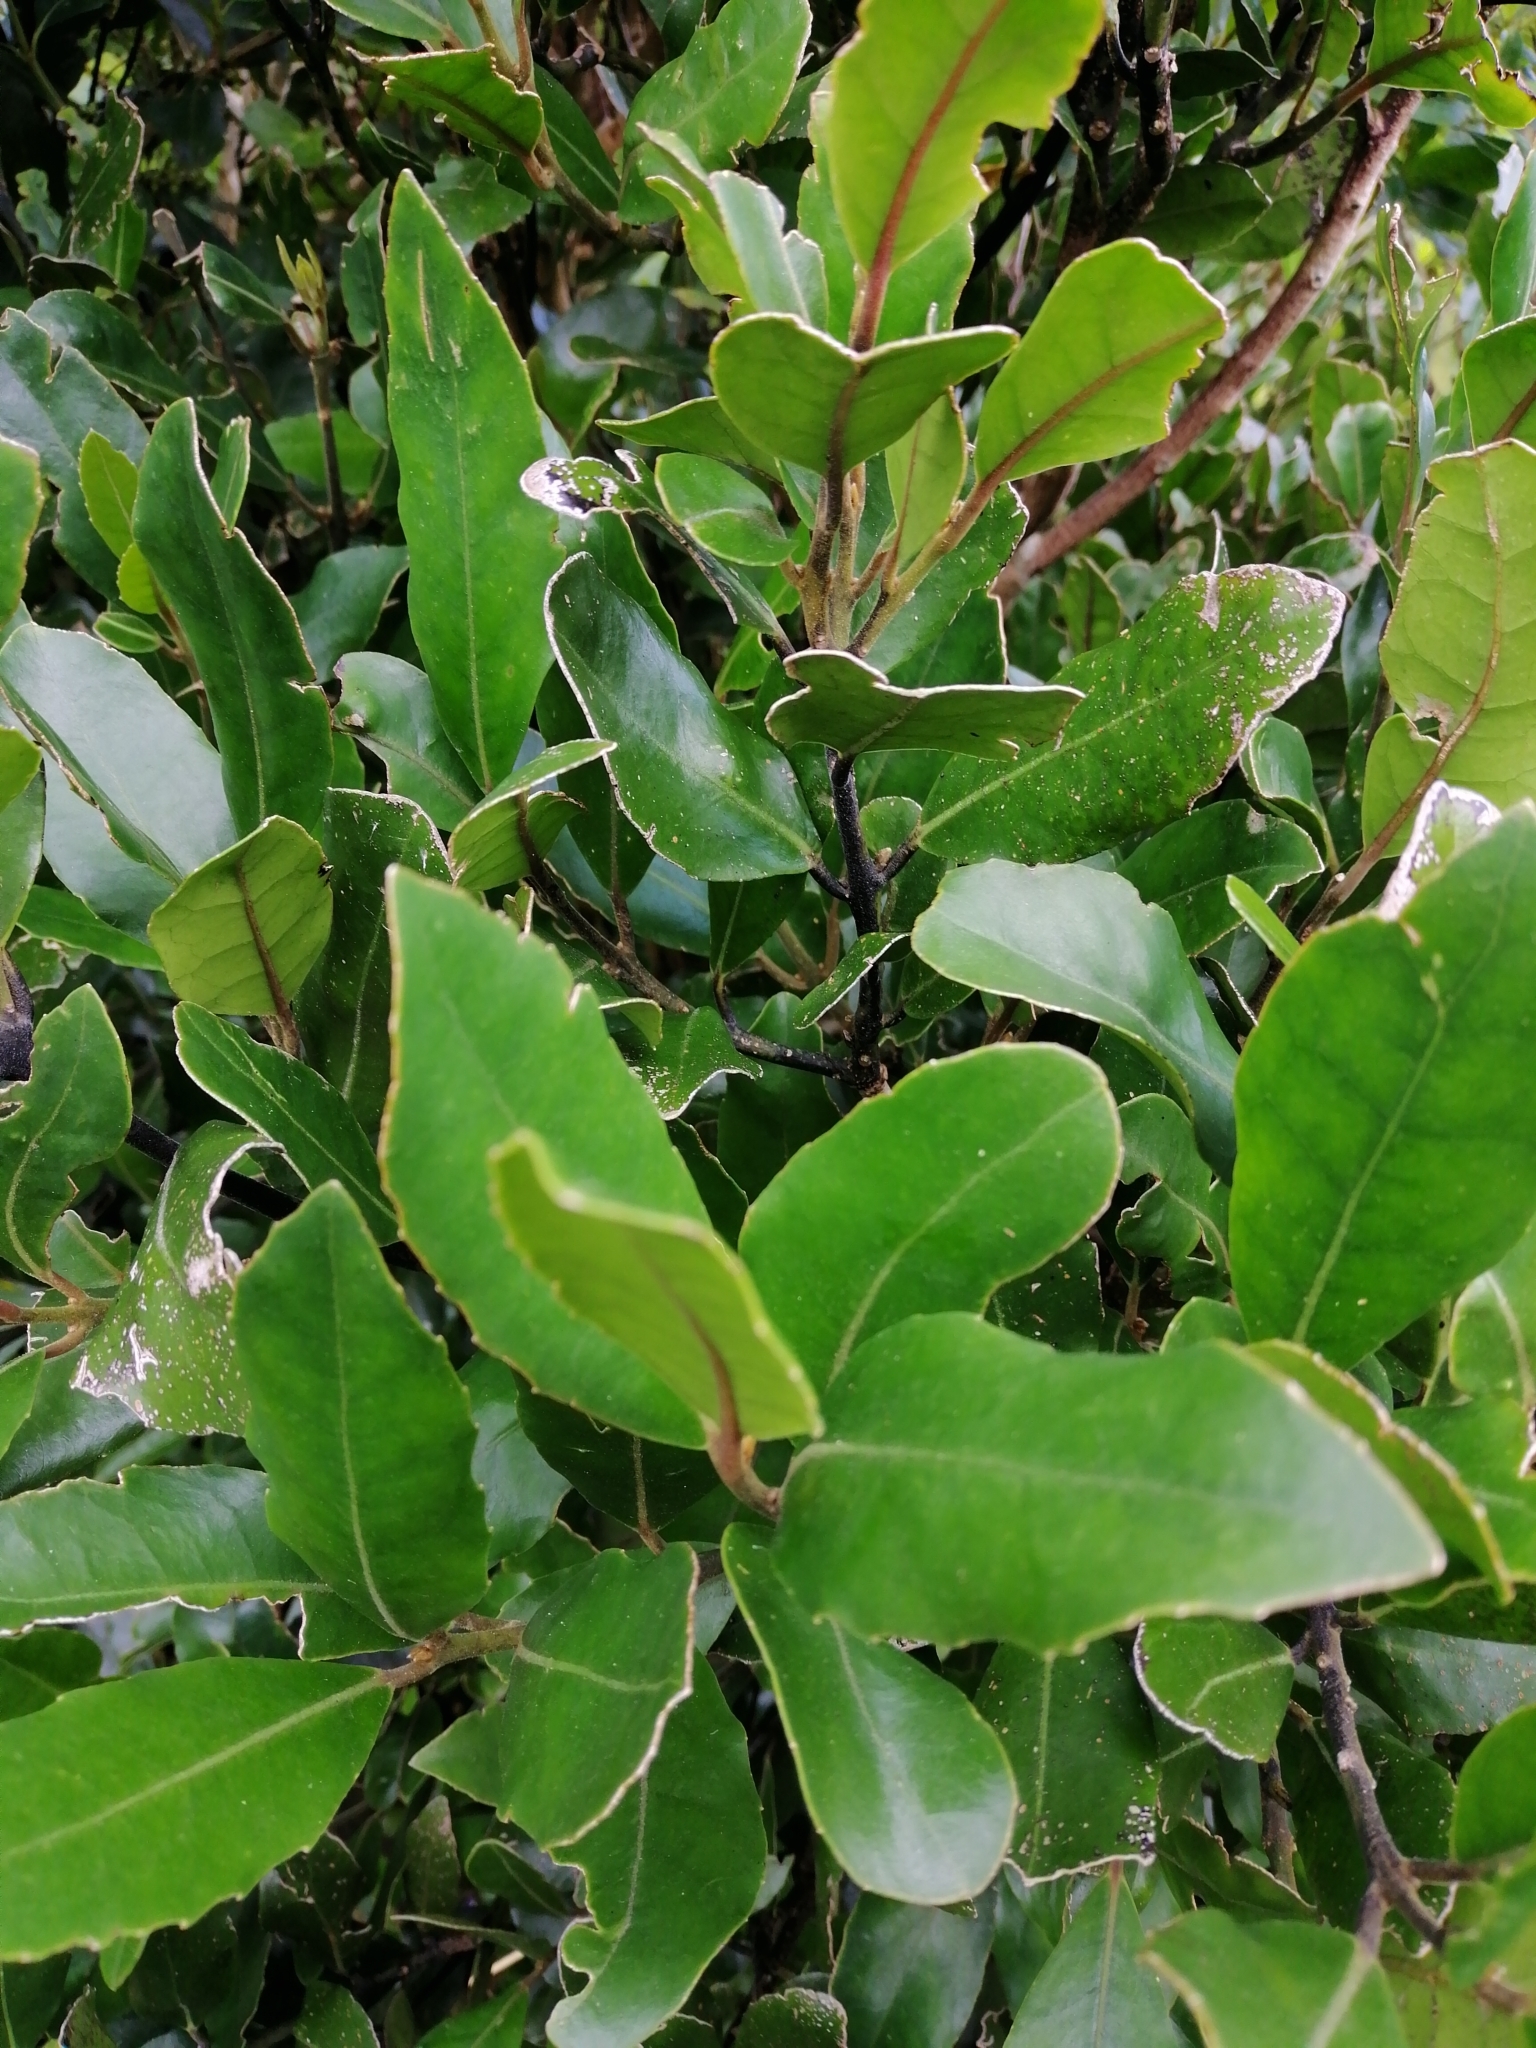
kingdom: Plantae
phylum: Tracheophyta
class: Magnoliopsida
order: Laurales
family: Monimiaceae
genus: Hedycarya
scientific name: Hedycarya arborea
